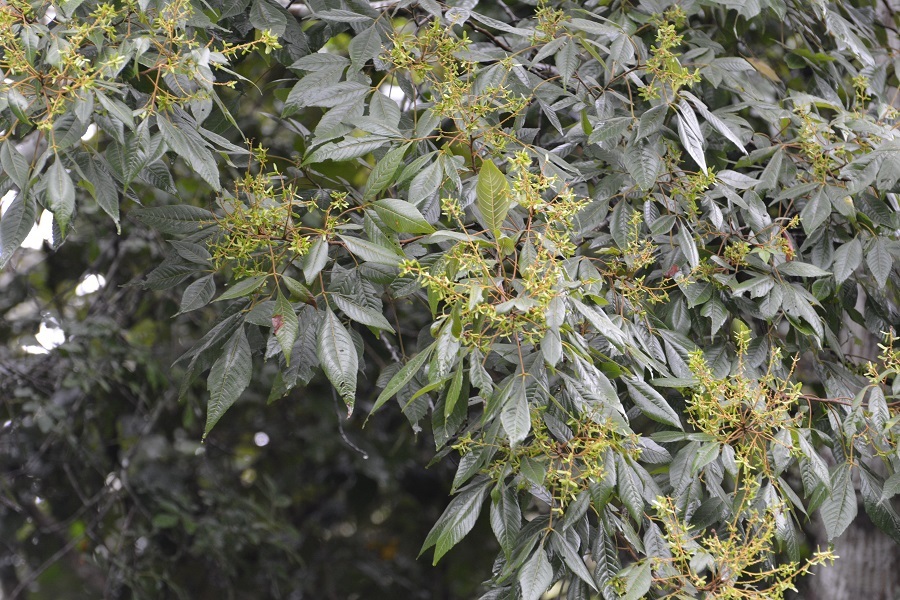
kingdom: Plantae
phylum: Tracheophyta
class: Magnoliopsida
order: Sapindales
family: Sapindaceae
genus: Thouinia
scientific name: Thouinia serrata
